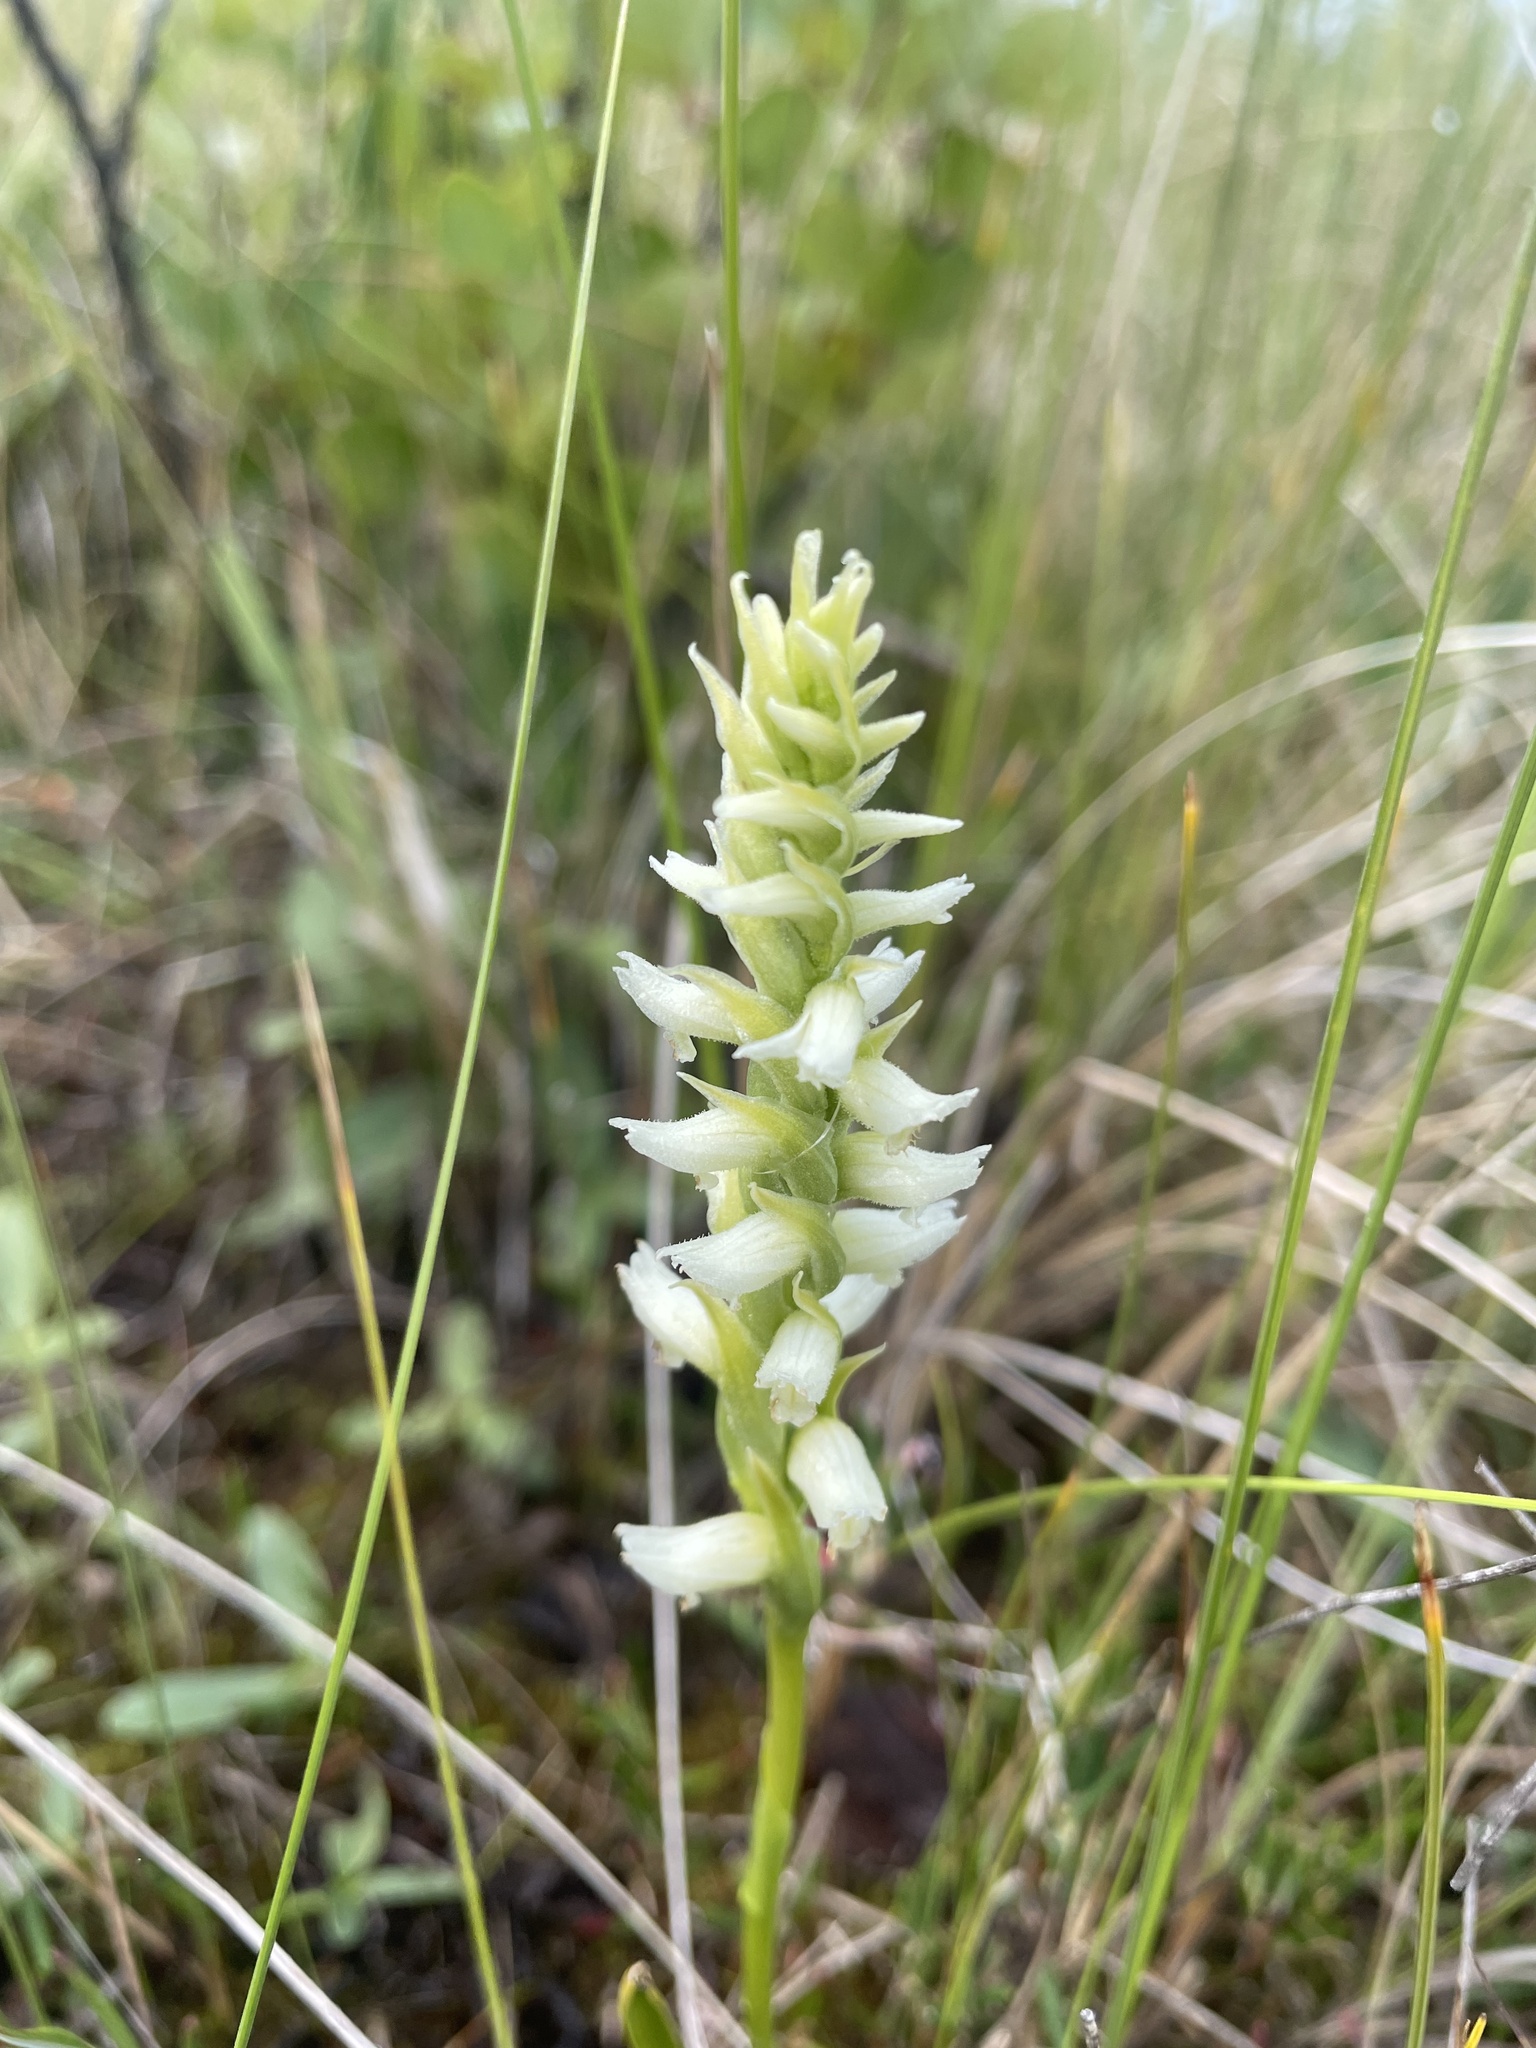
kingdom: Plantae
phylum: Tracheophyta
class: Liliopsida
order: Asparagales
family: Orchidaceae
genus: Spiranthes
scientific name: Spiranthes romanzoffiana
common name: Irish lady's-tresses
